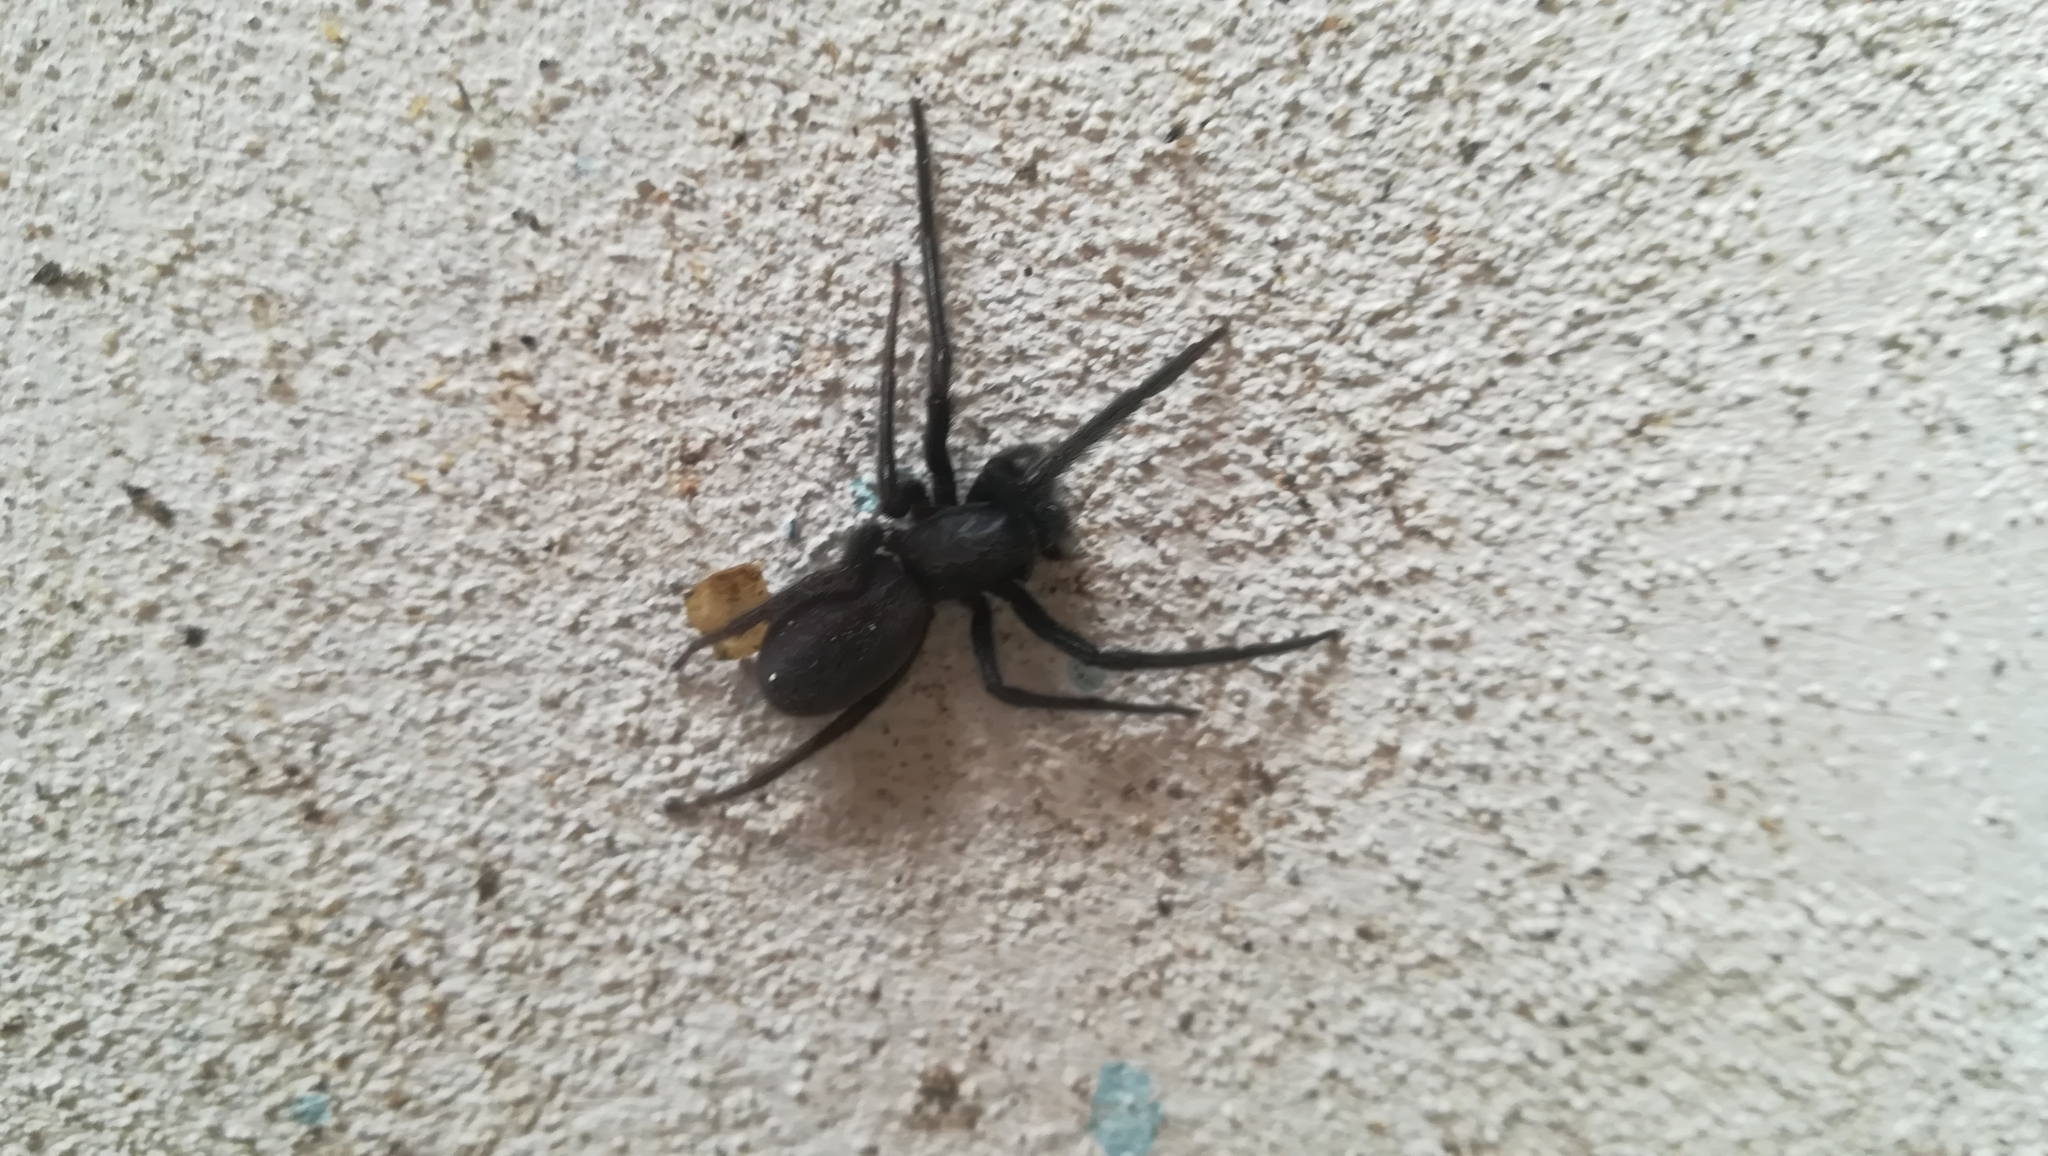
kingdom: Animalia
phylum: Arthropoda
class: Arachnida
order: Araneae
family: Segestriidae
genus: Segestria
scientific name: Segestria florentina
